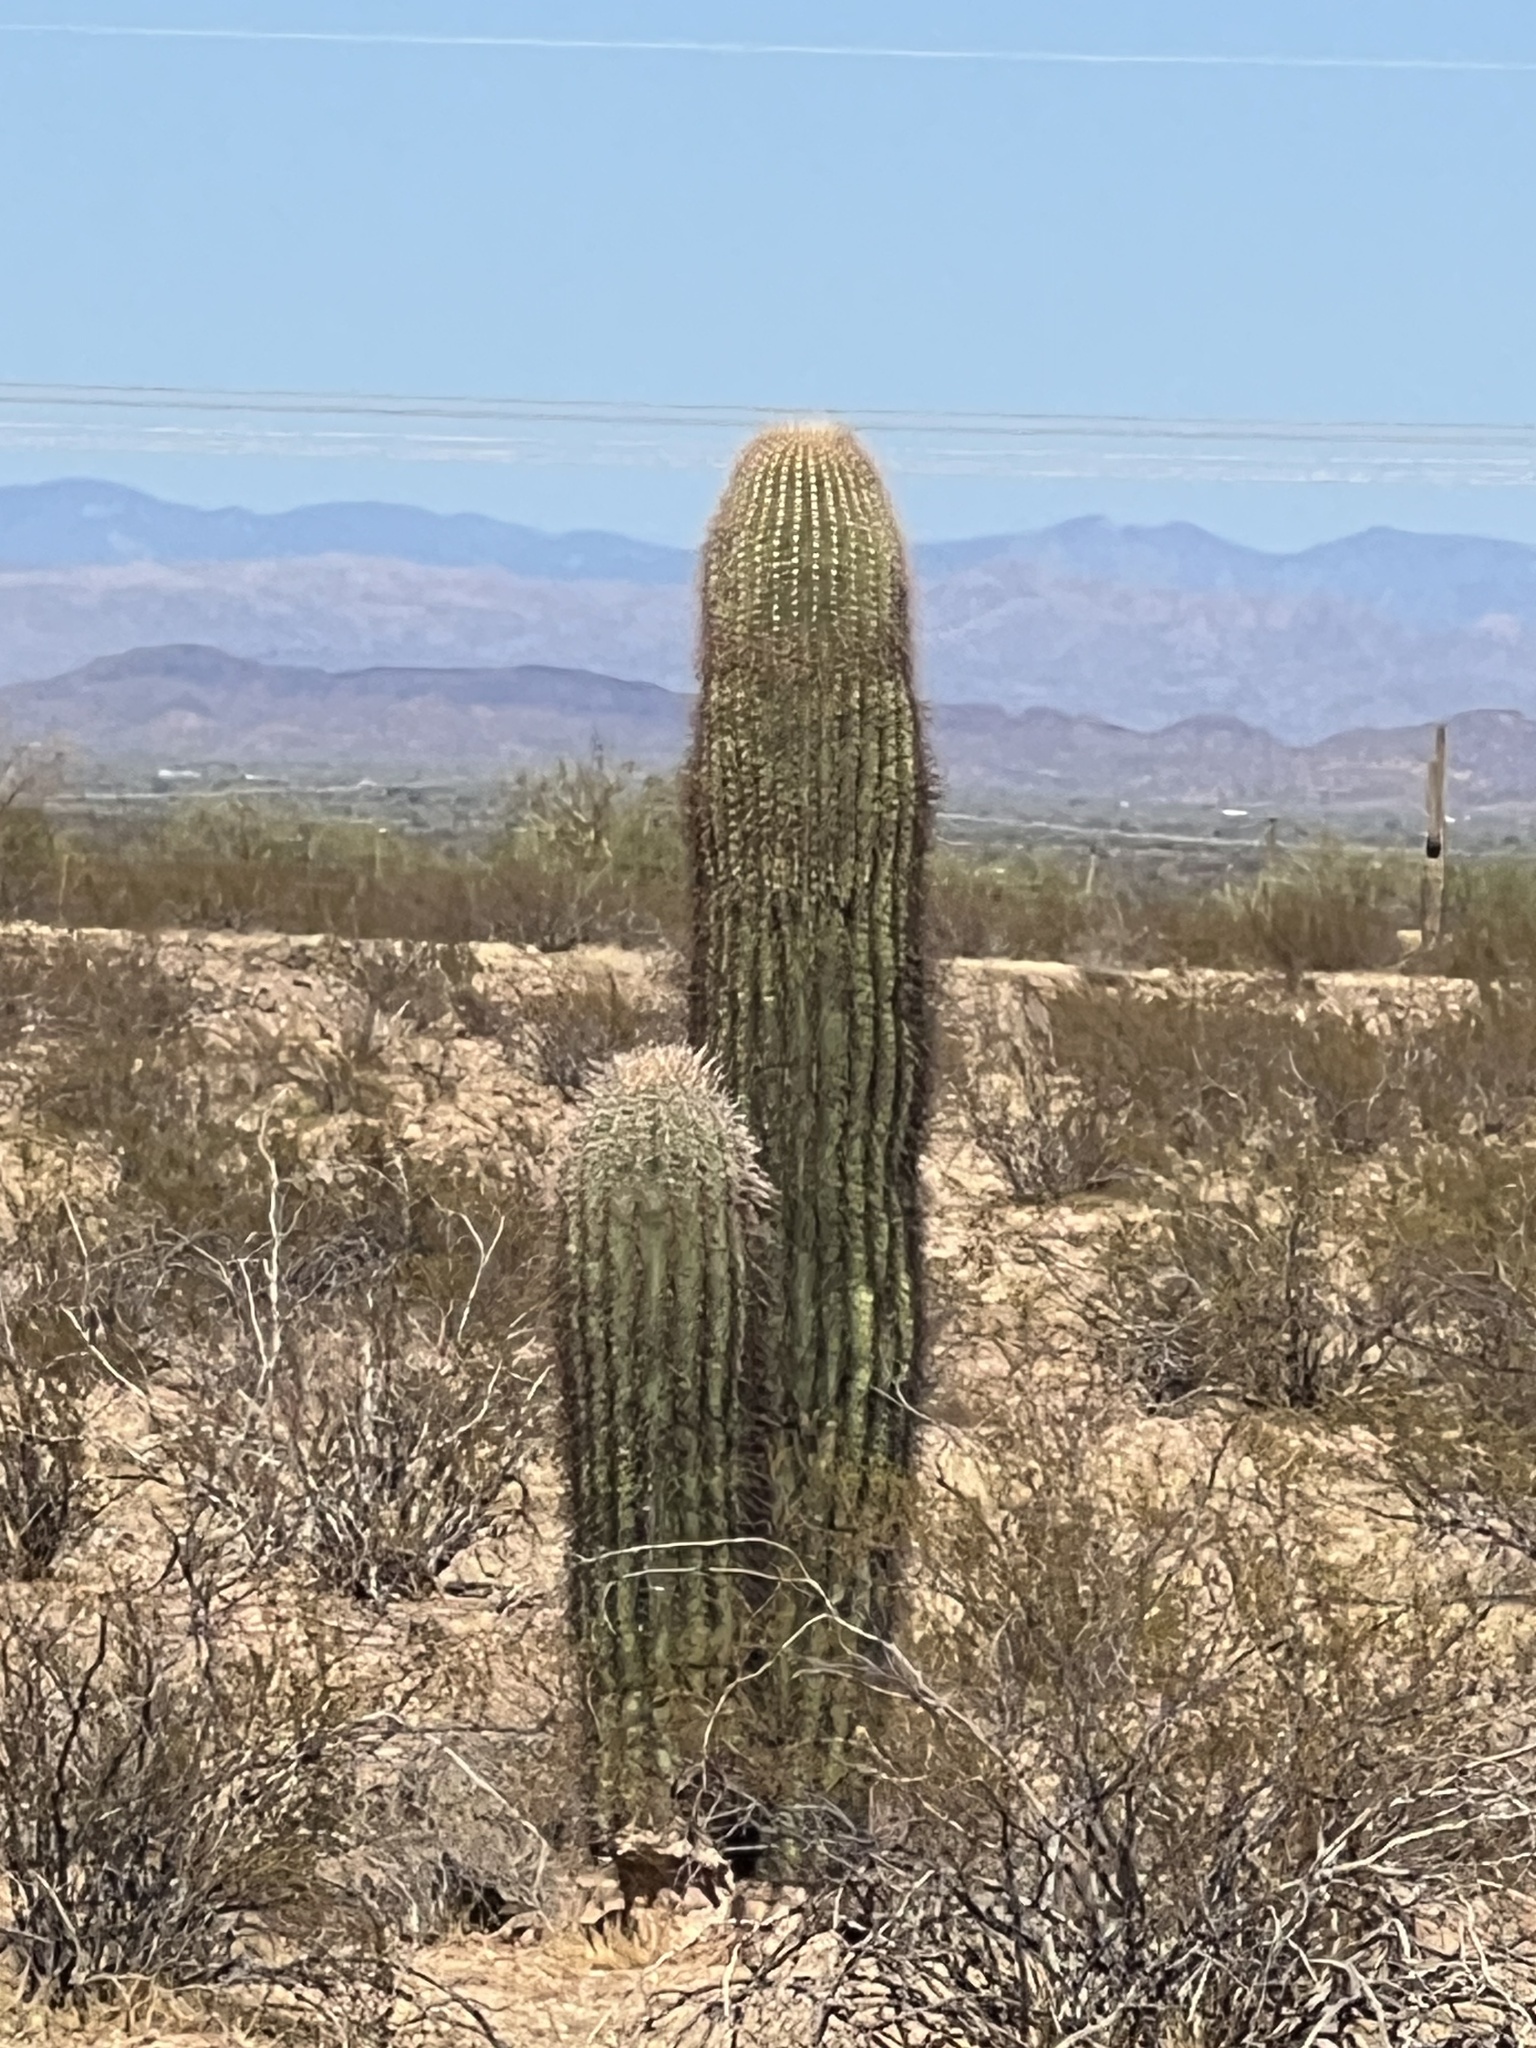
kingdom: Plantae
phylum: Tracheophyta
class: Magnoliopsida
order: Caryophyllales
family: Cactaceae
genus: Carnegiea
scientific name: Carnegiea gigantea
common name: Saguaro
